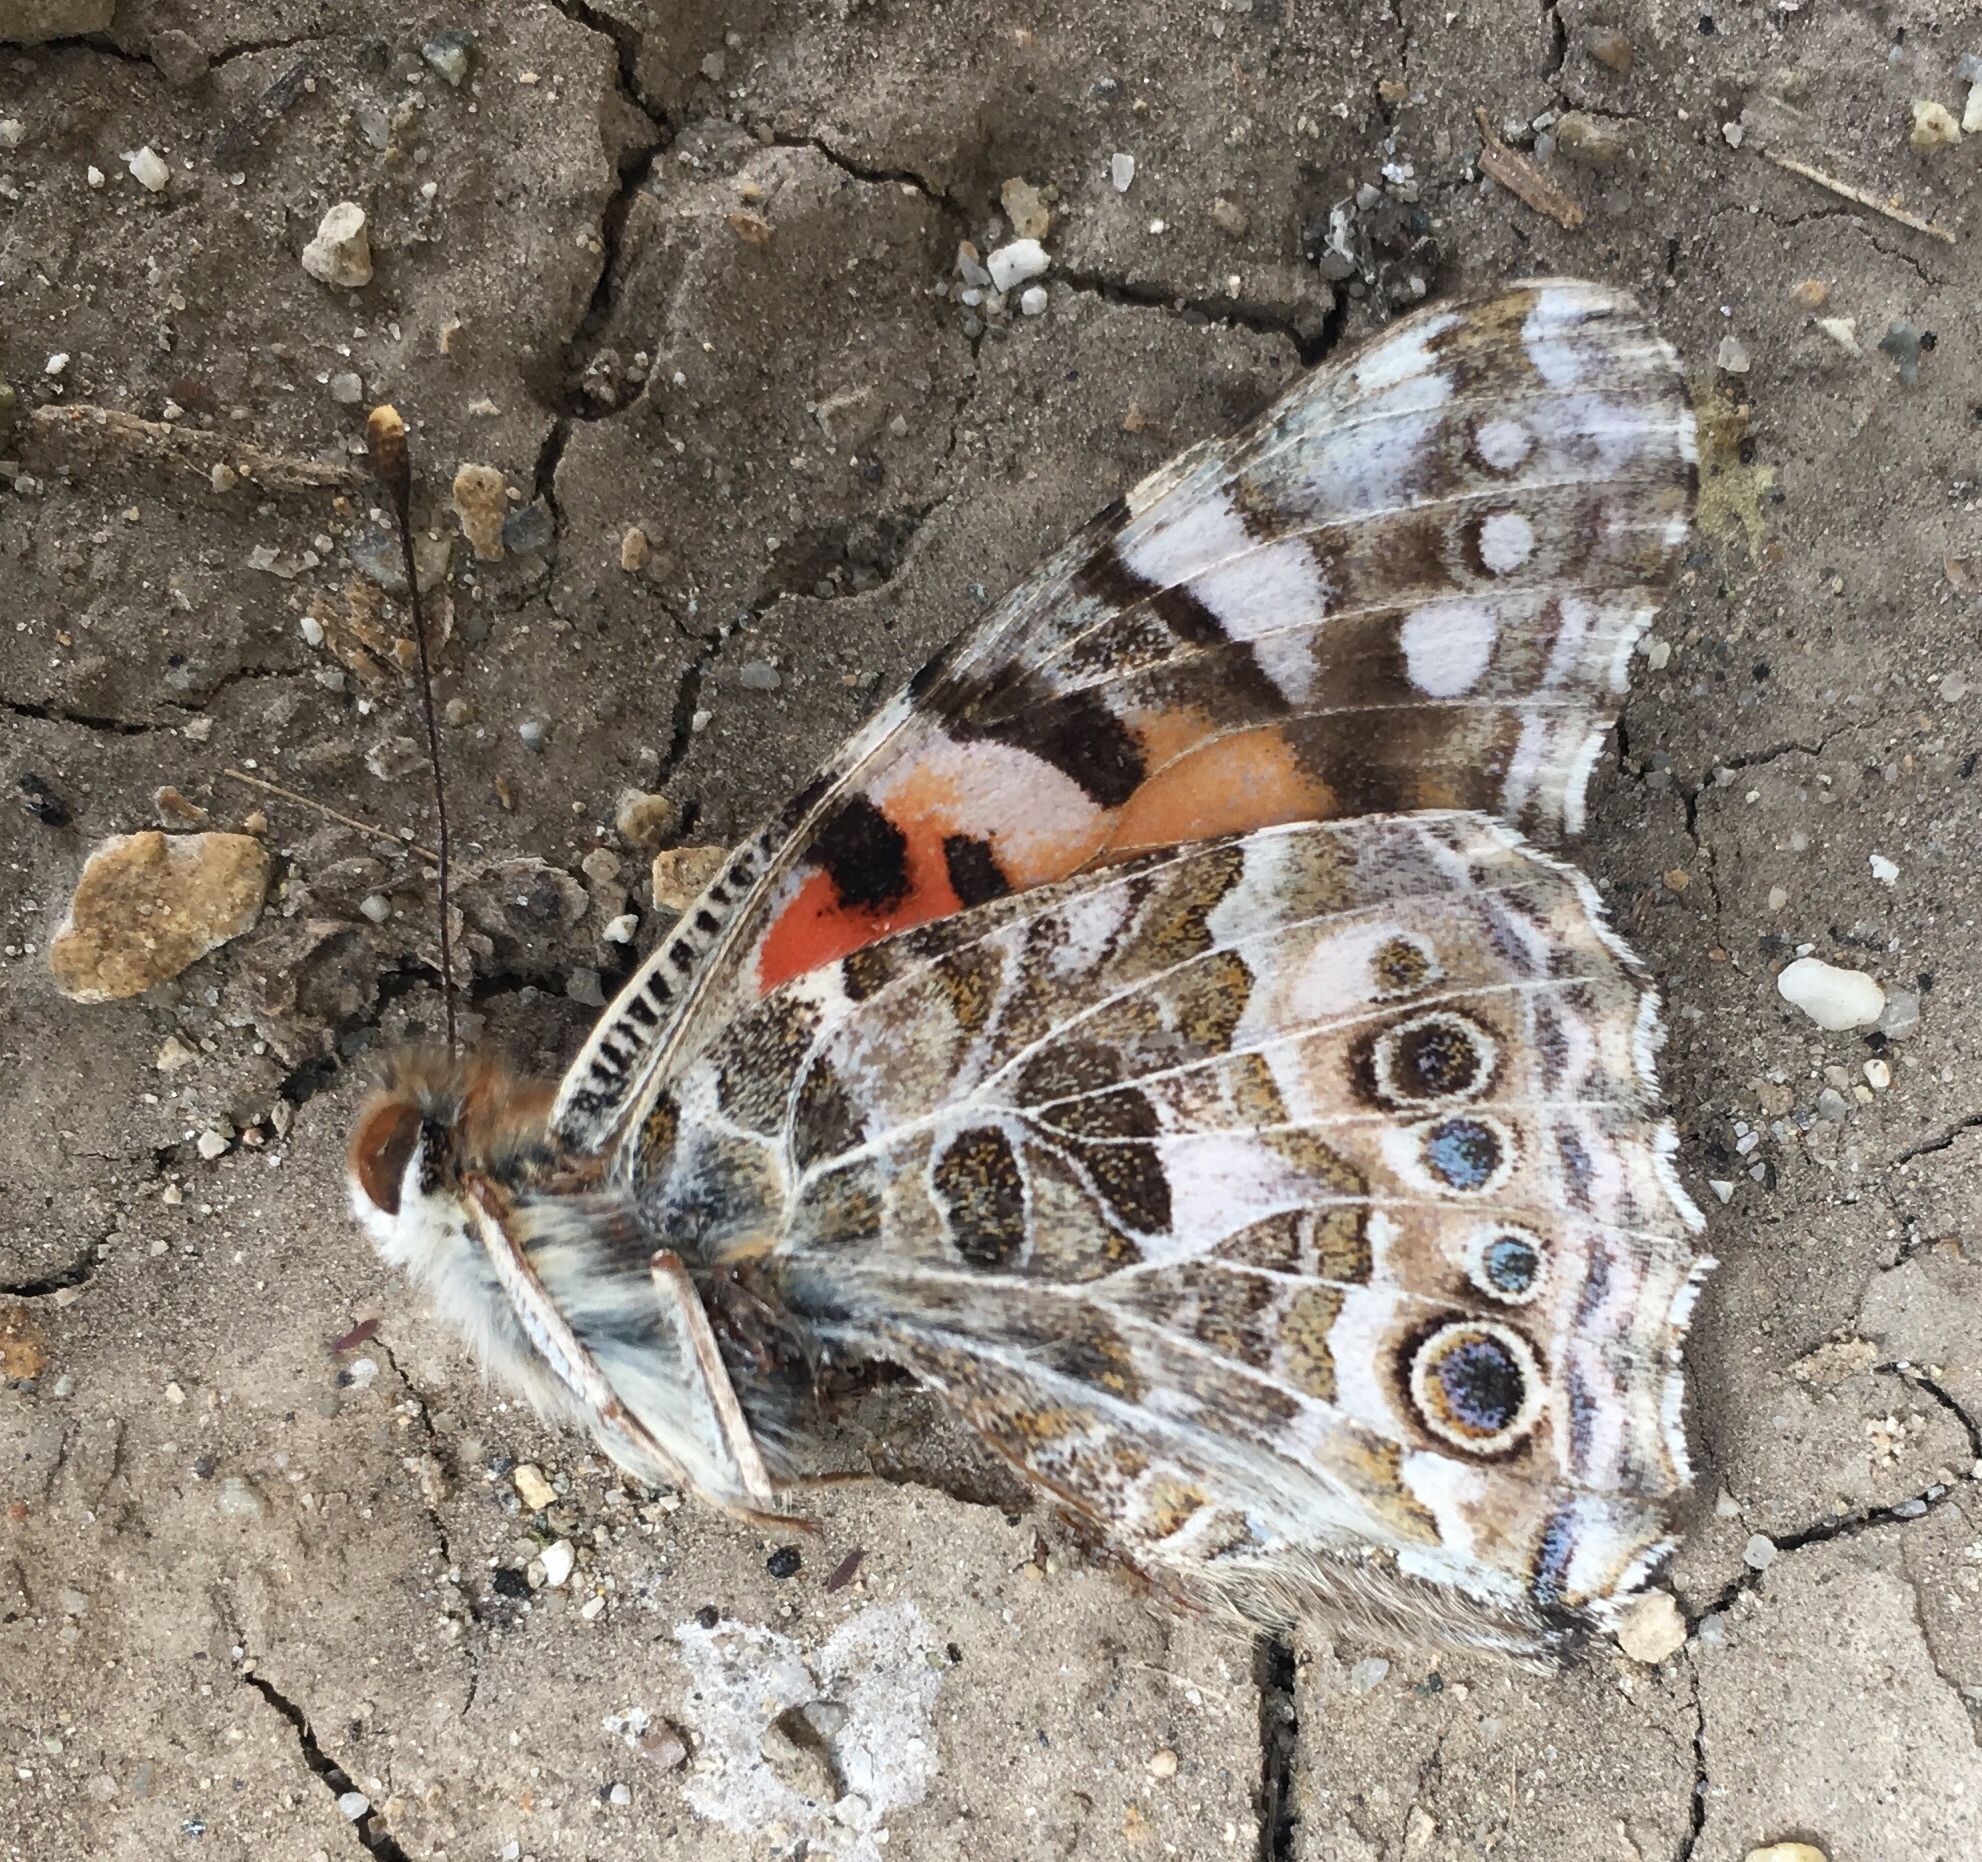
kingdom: Animalia
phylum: Arthropoda
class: Insecta
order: Lepidoptera
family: Nymphalidae
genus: Vanessa
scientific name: Vanessa cardui
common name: Painted lady
